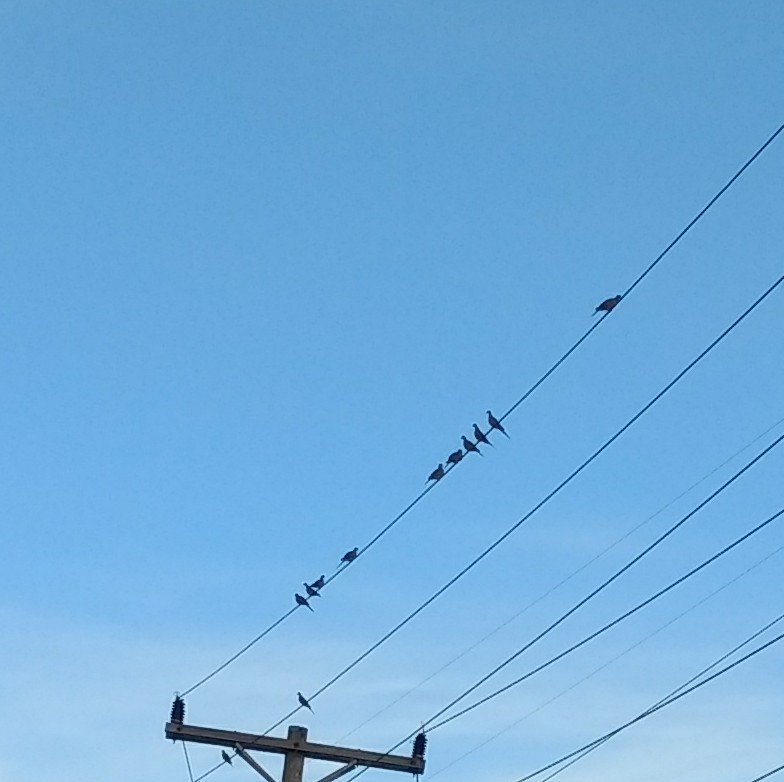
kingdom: Animalia
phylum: Chordata
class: Aves
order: Columbiformes
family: Columbidae
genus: Zenaida
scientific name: Zenaida macroura
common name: Mourning dove
